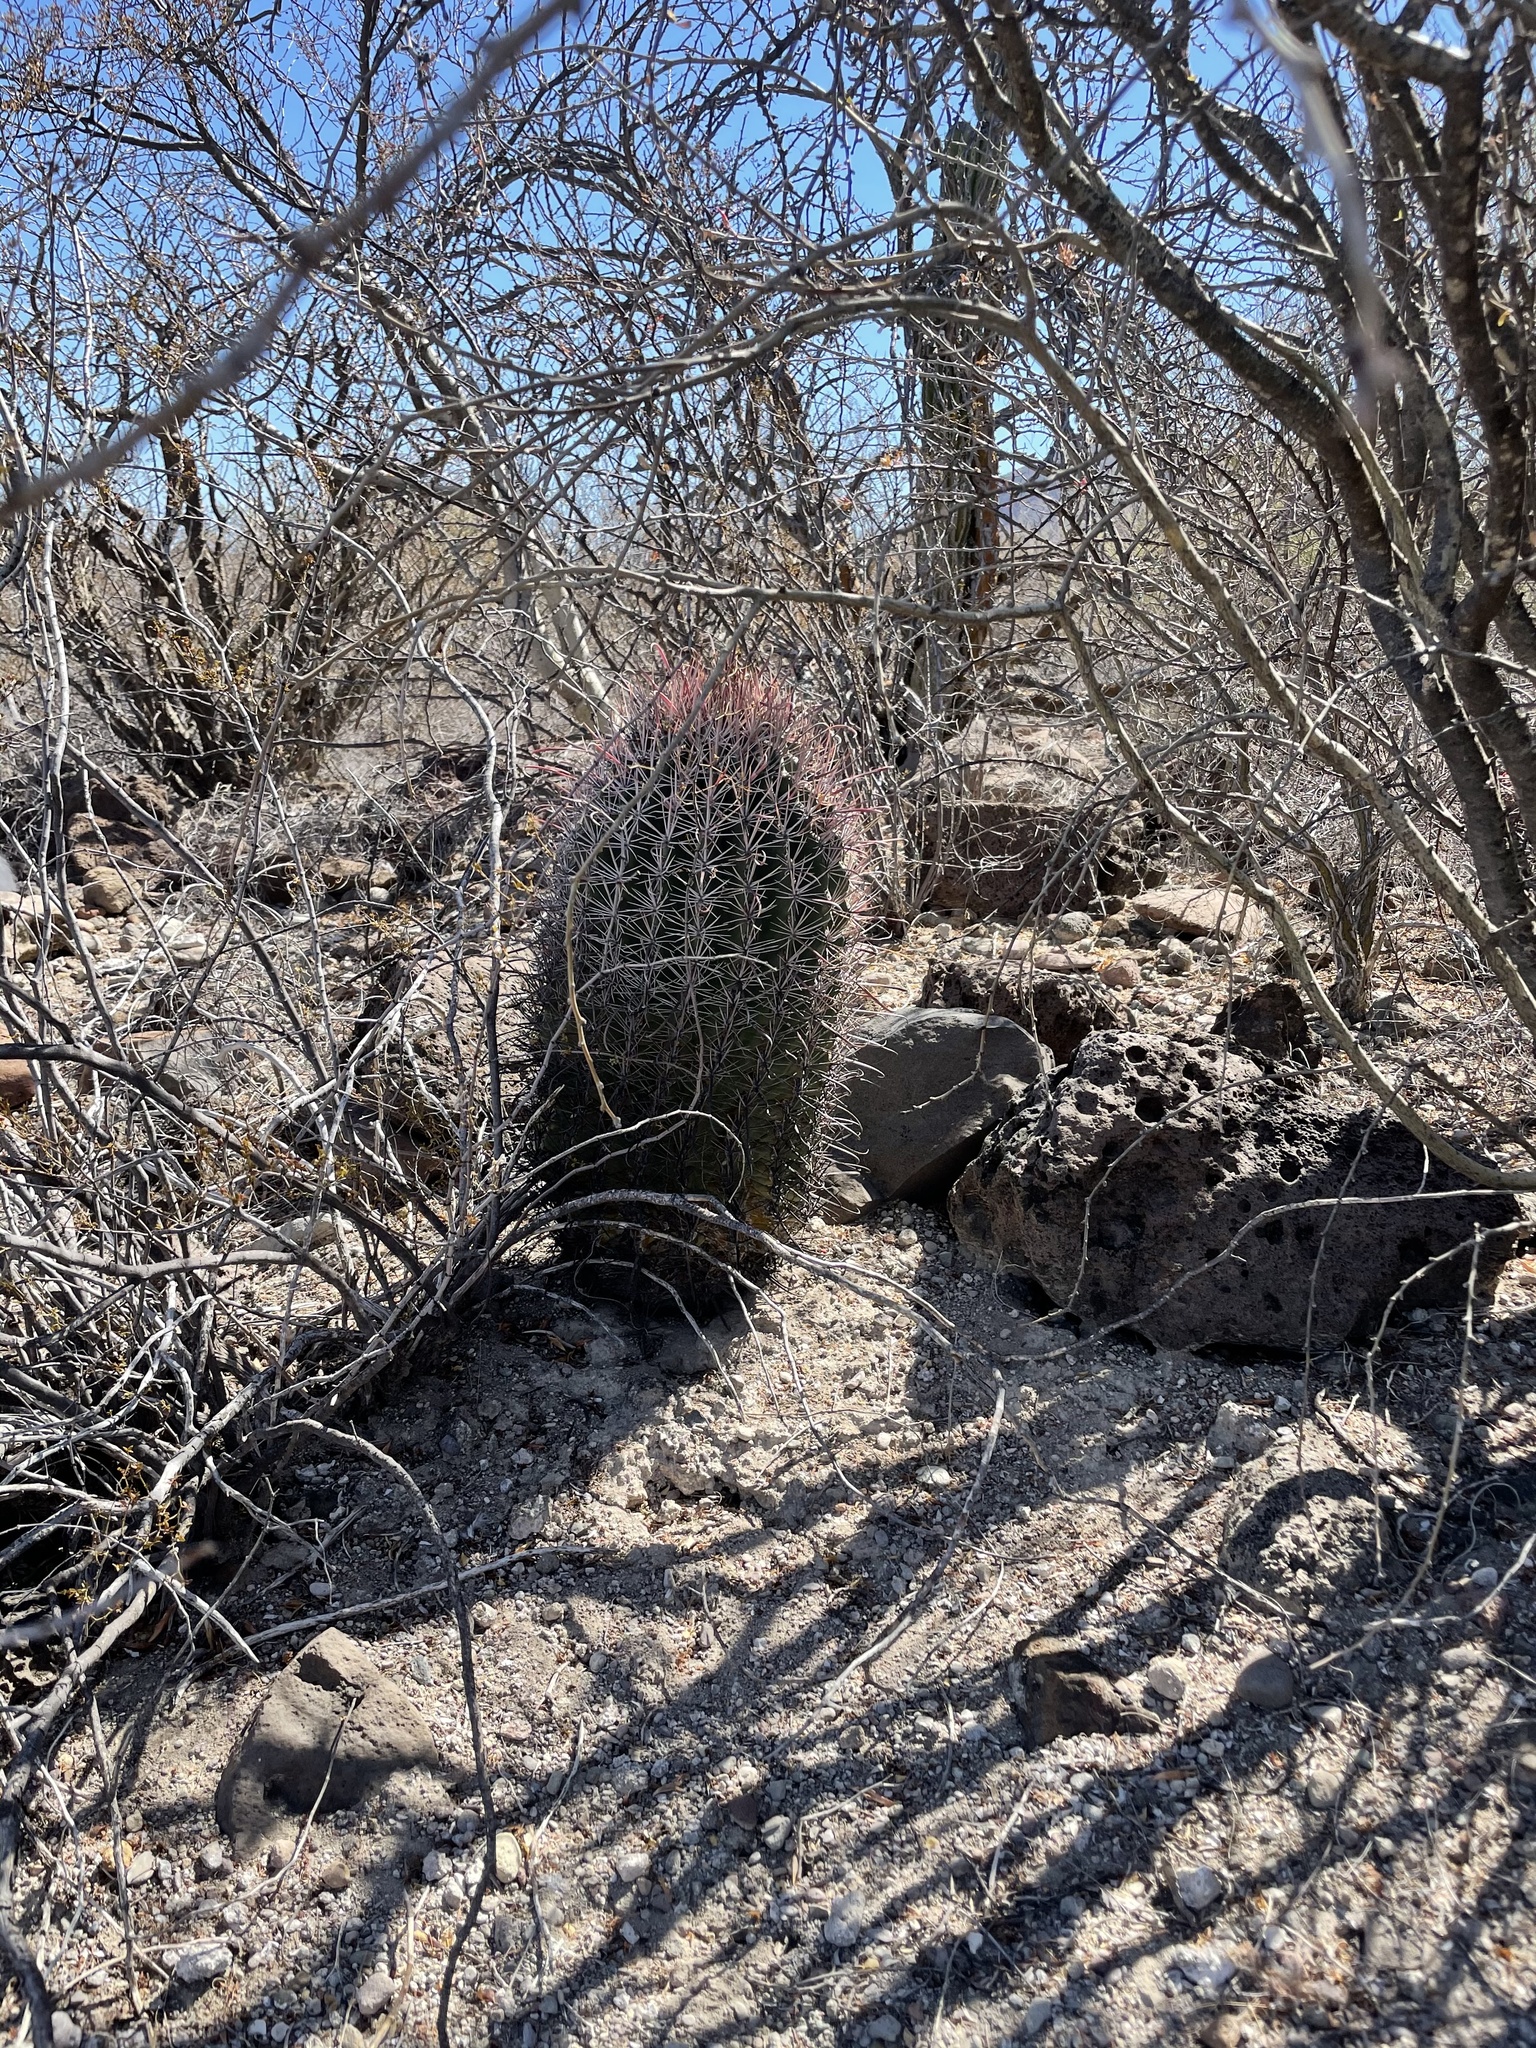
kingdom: Plantae
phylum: Tracheophyta
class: Magnoliopsida
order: Caryophyllales
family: Cactaceae
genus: Ferocactus
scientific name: Ferocactus peninsulae
